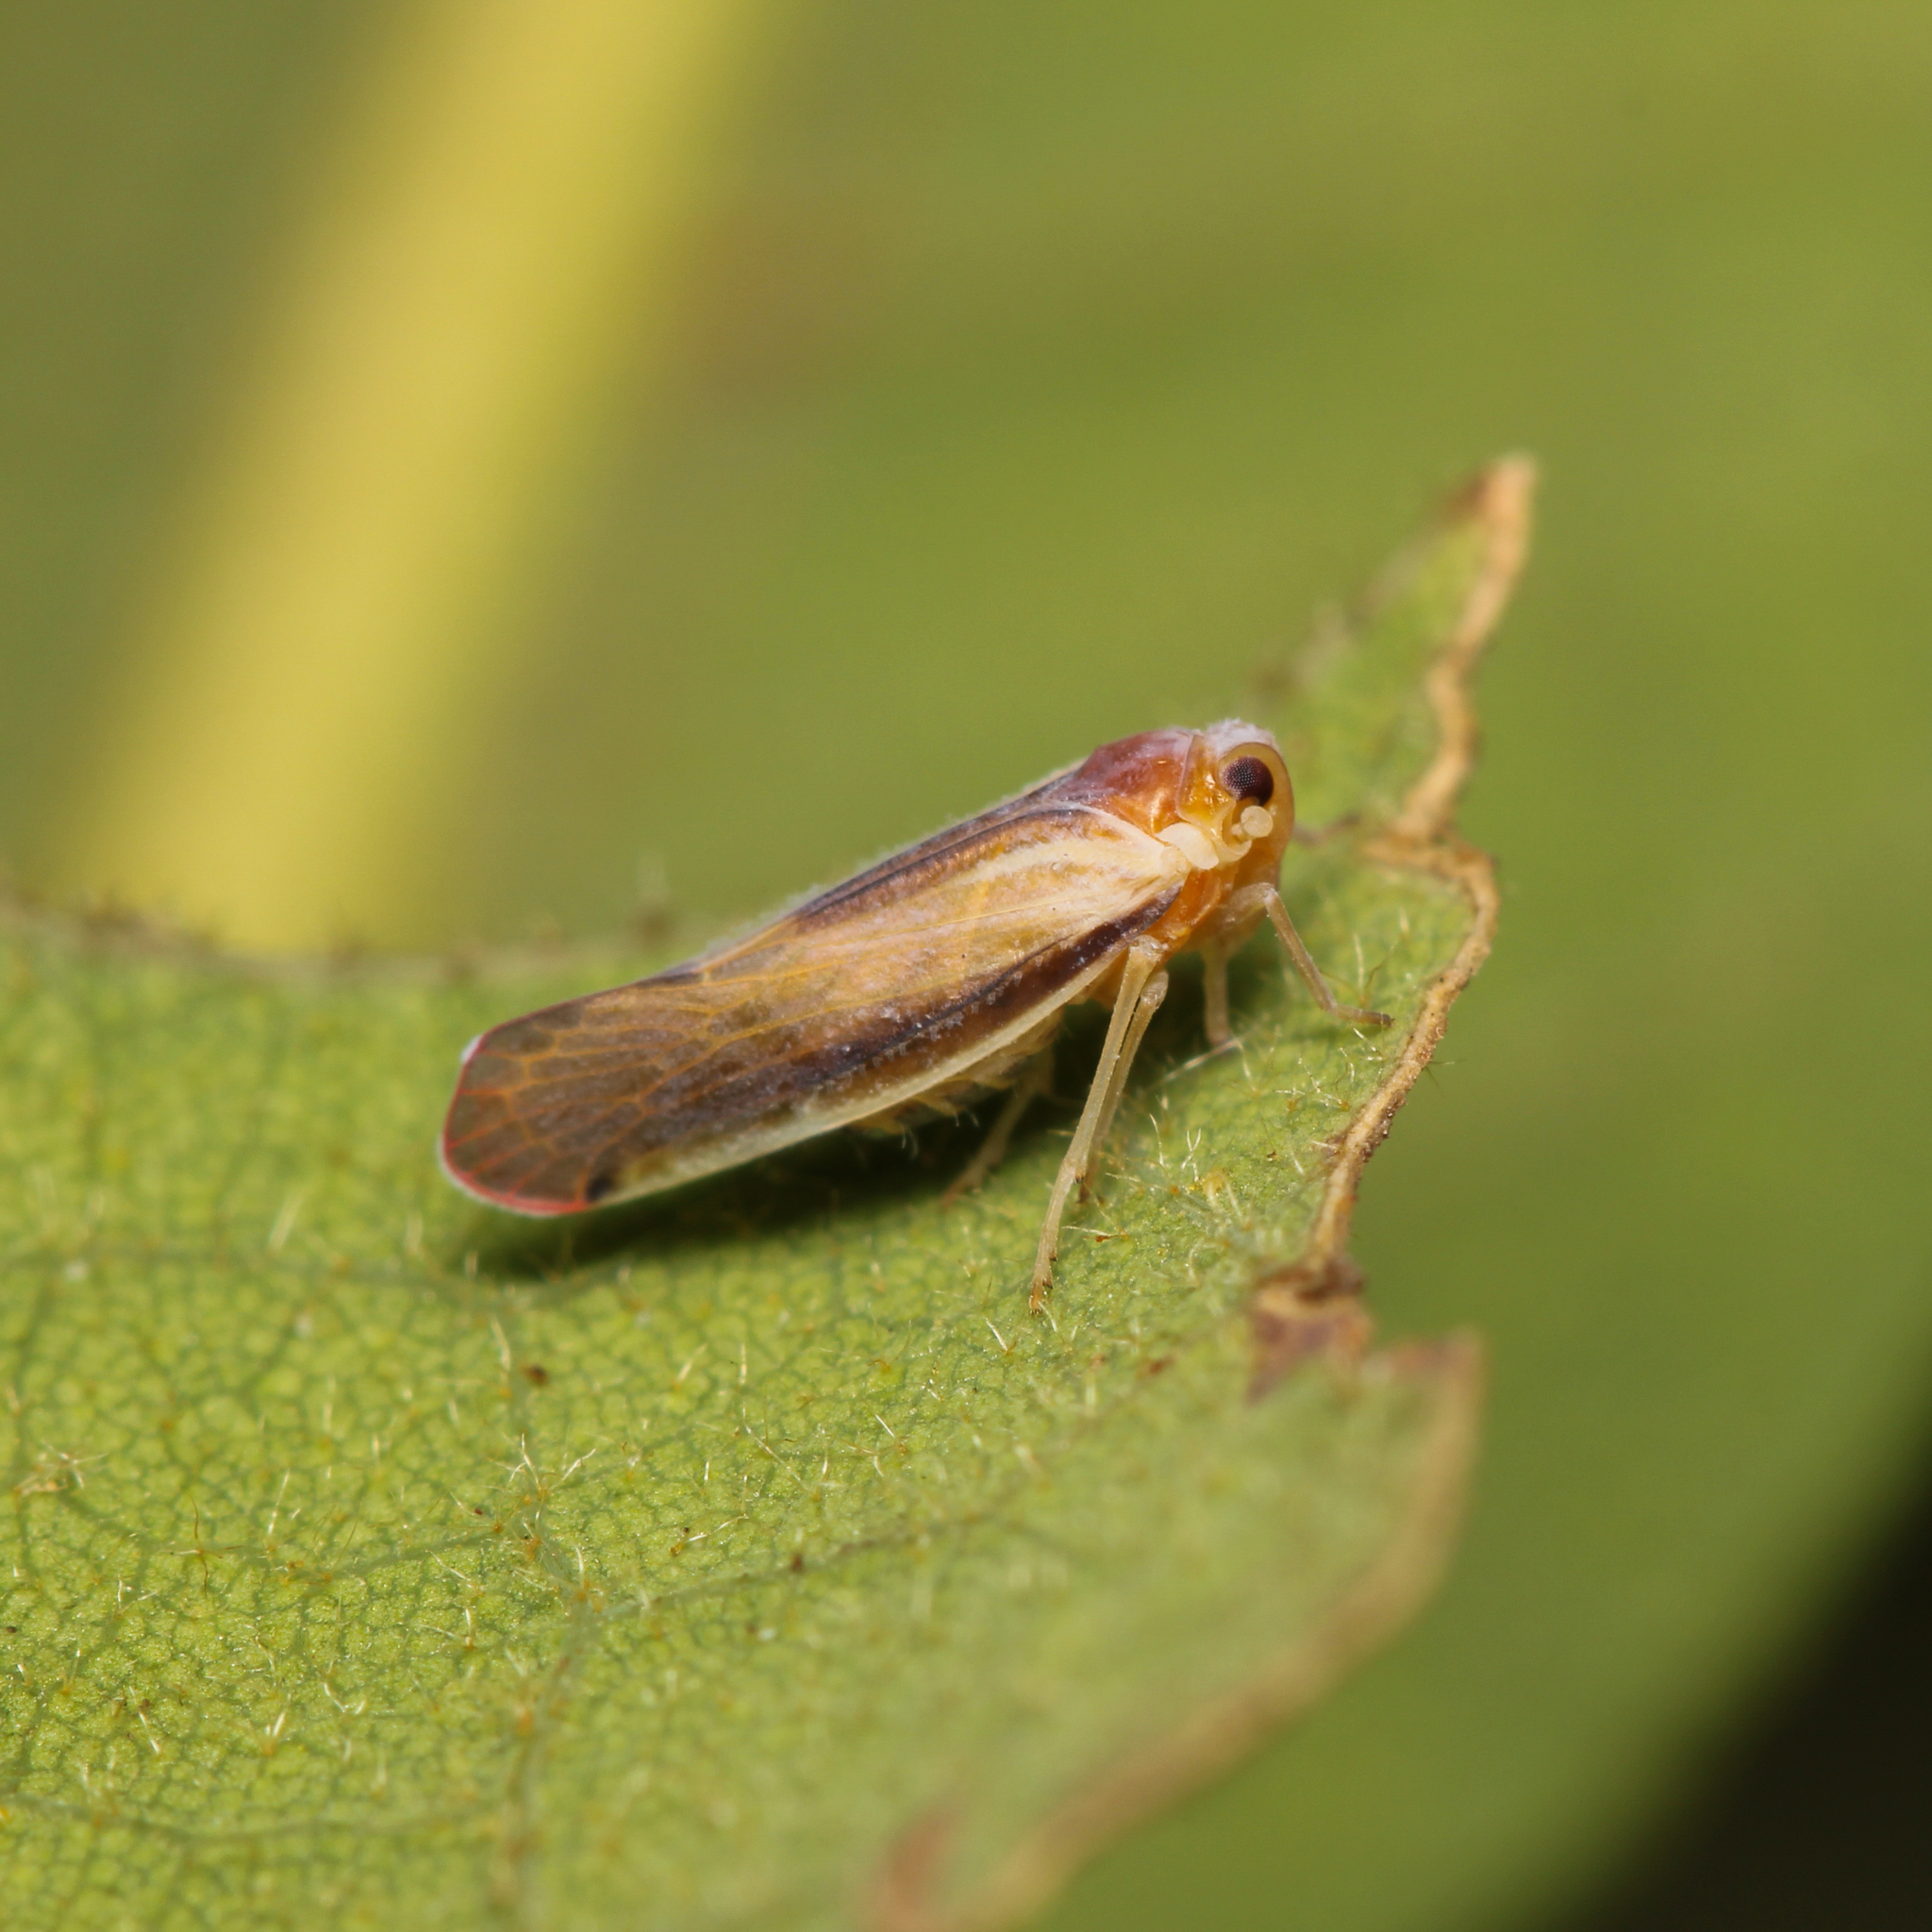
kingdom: Animalia
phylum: Arthropoda
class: Insecta
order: Hemiptera
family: Derbidae
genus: Omolicna
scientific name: Omolicna uhleri
